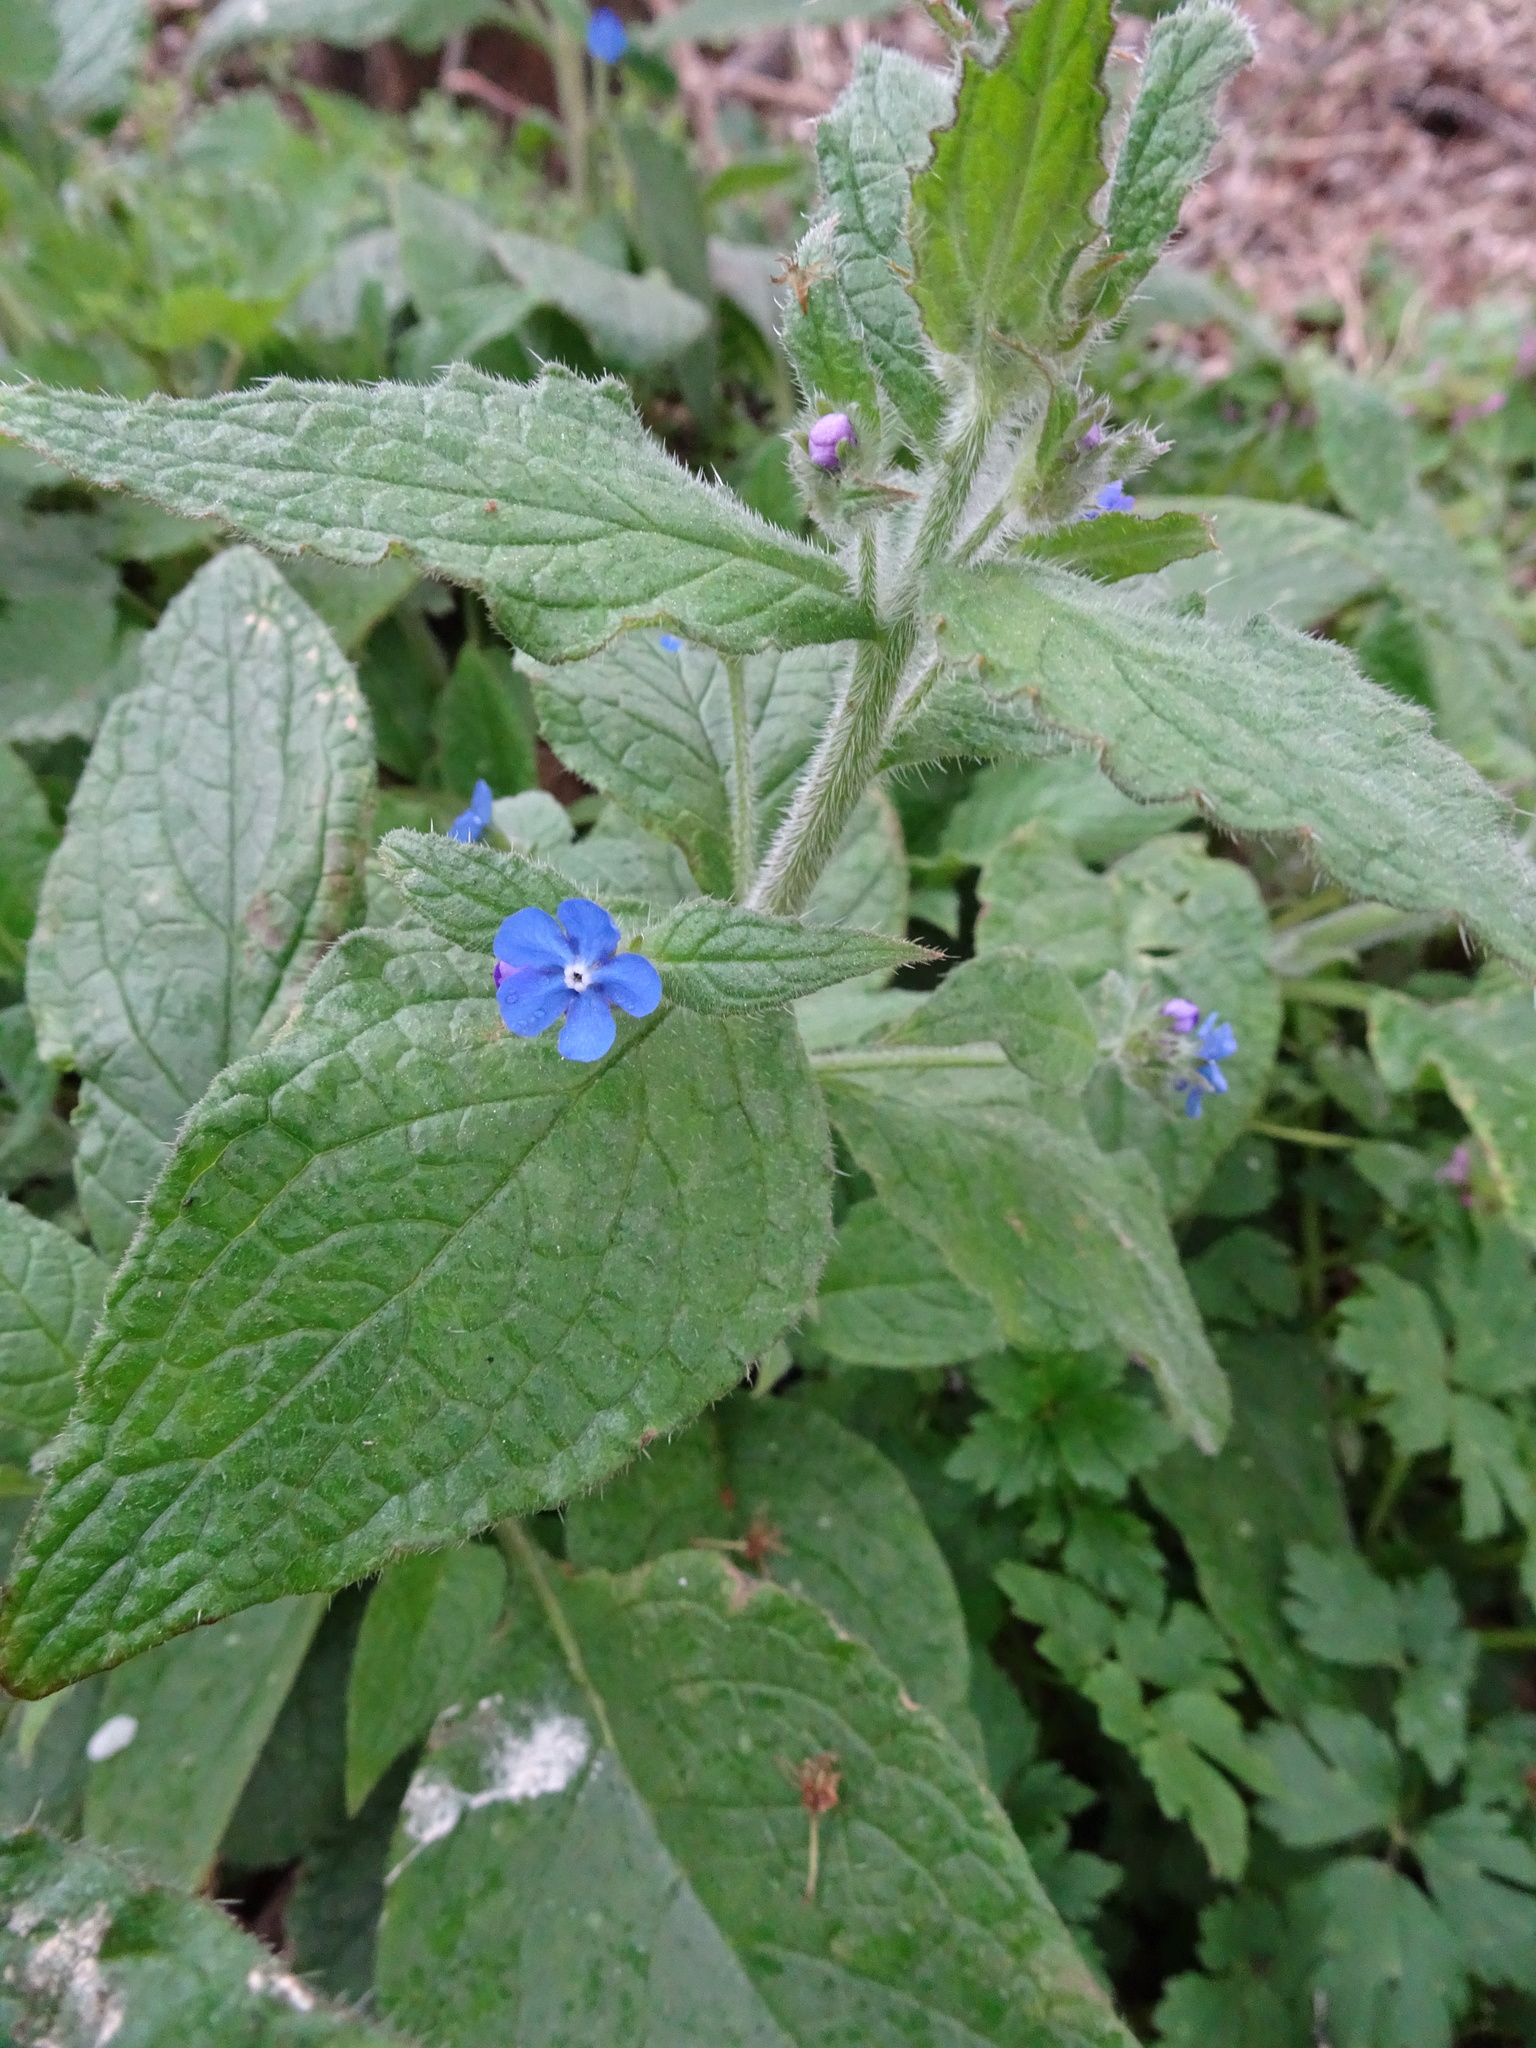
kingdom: Plantae
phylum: Tracheophyta
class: Magnoliopsida
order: Boraginales
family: Boraginaceae
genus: Pentaglottis
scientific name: Pentaglottis sempervirens
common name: Green alkanet
